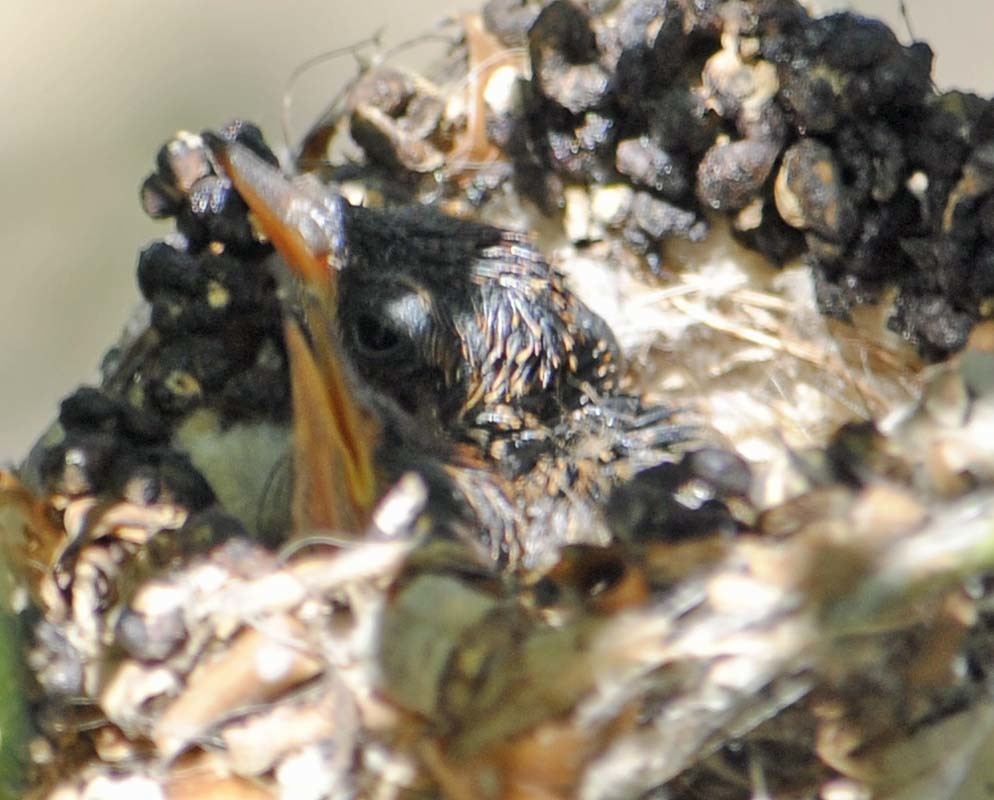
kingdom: Animalia
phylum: Chordata
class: Aves
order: Apodiformes
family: Trochilidae
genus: Cynanthus
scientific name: Cynanthus latirostris
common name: Broad-billed hummingbird
